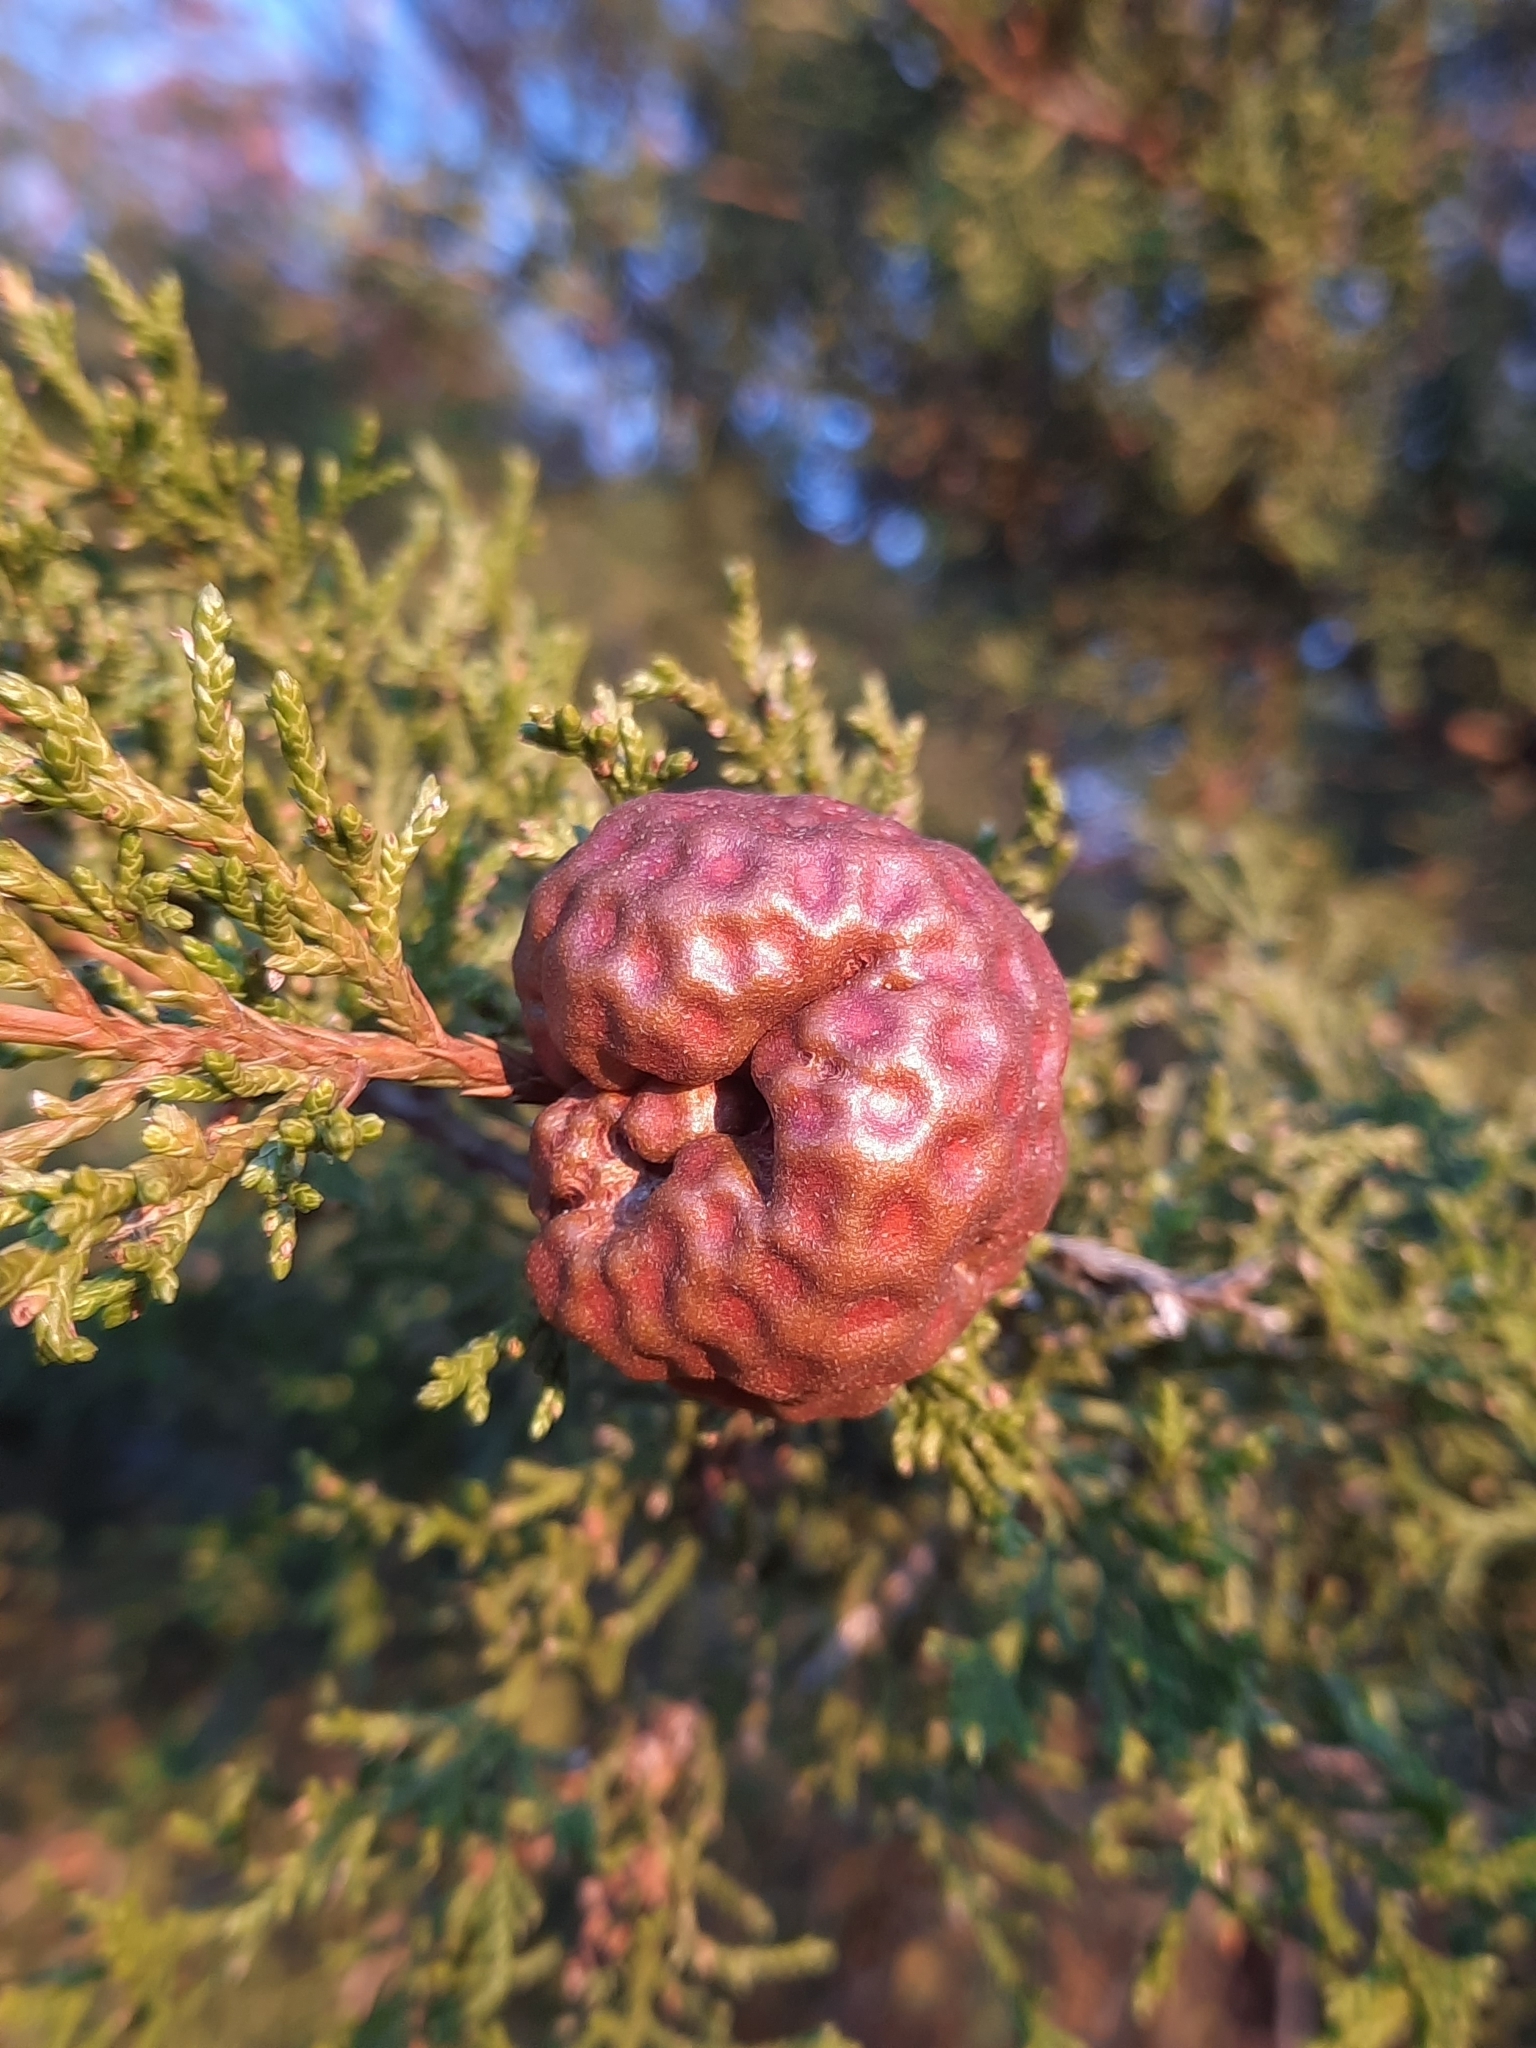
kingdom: Fungi
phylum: Basidiomycota
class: Pucciniomycetes
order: Pucciniales
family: Gymnosporangiaceae
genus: Gymnosporangium
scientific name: Gymnosporangium juniperi-virginianae
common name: Juniper-apple rust
